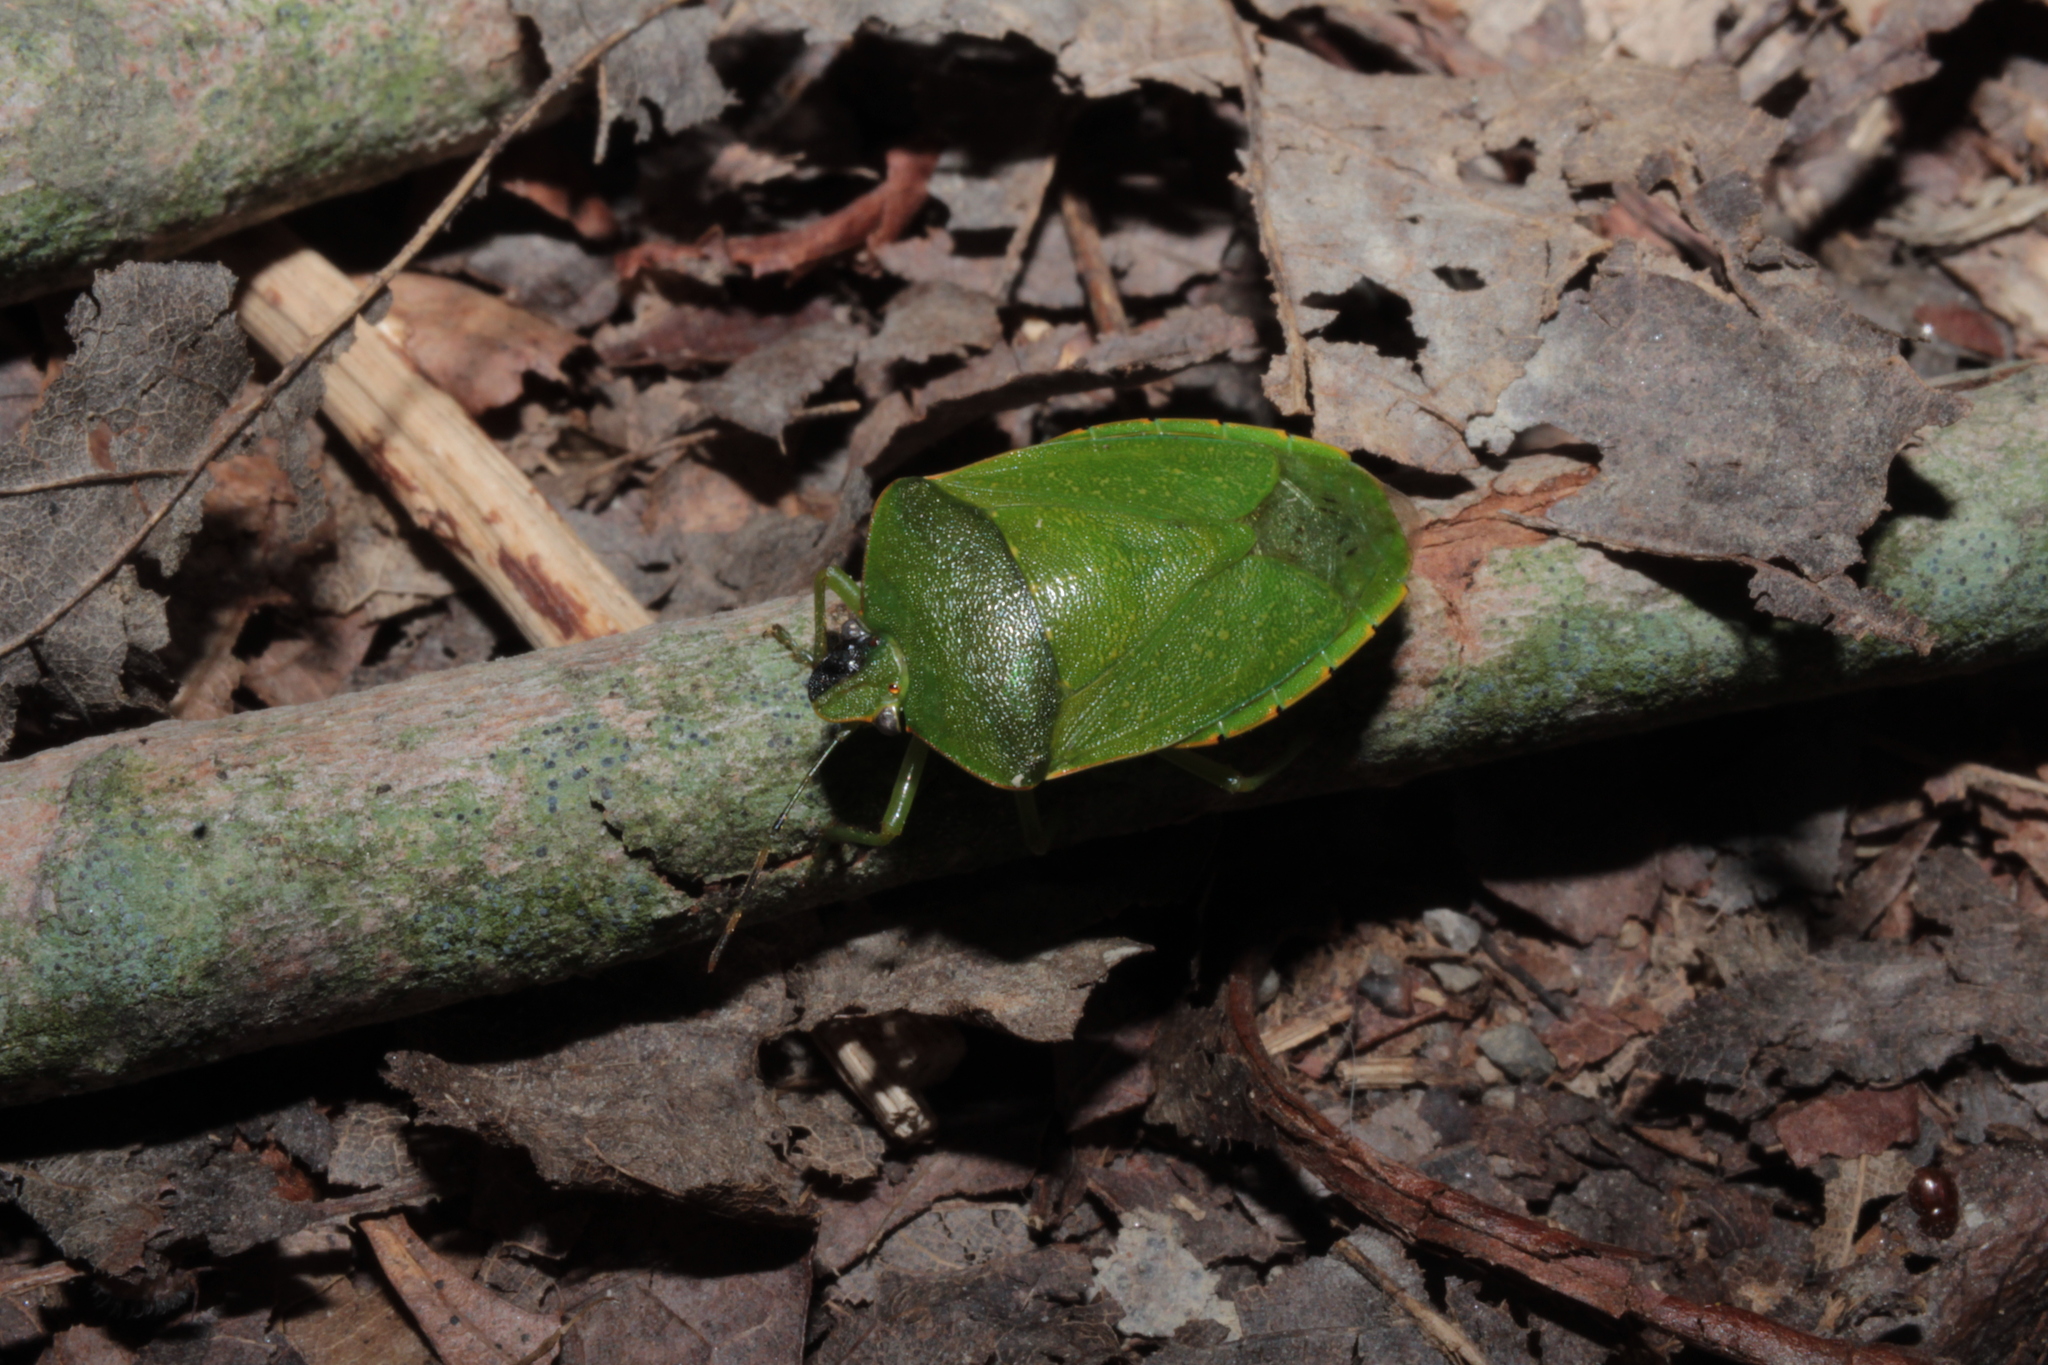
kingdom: Animalia
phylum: Arthropoda
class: Insecta
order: Hemiptera
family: Pentatomidae
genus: Chinavia
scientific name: Chinavia hilaris
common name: Green stink bug
